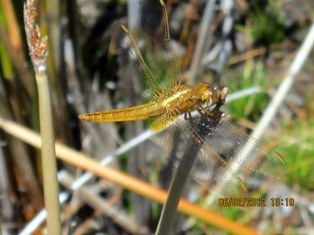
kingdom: Animalia
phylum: Arthropoda
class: Insecta
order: Odonata
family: Libellulidae
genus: Crocothemis
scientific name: Crocothemis erythraea
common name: Scarlet dragonfly
